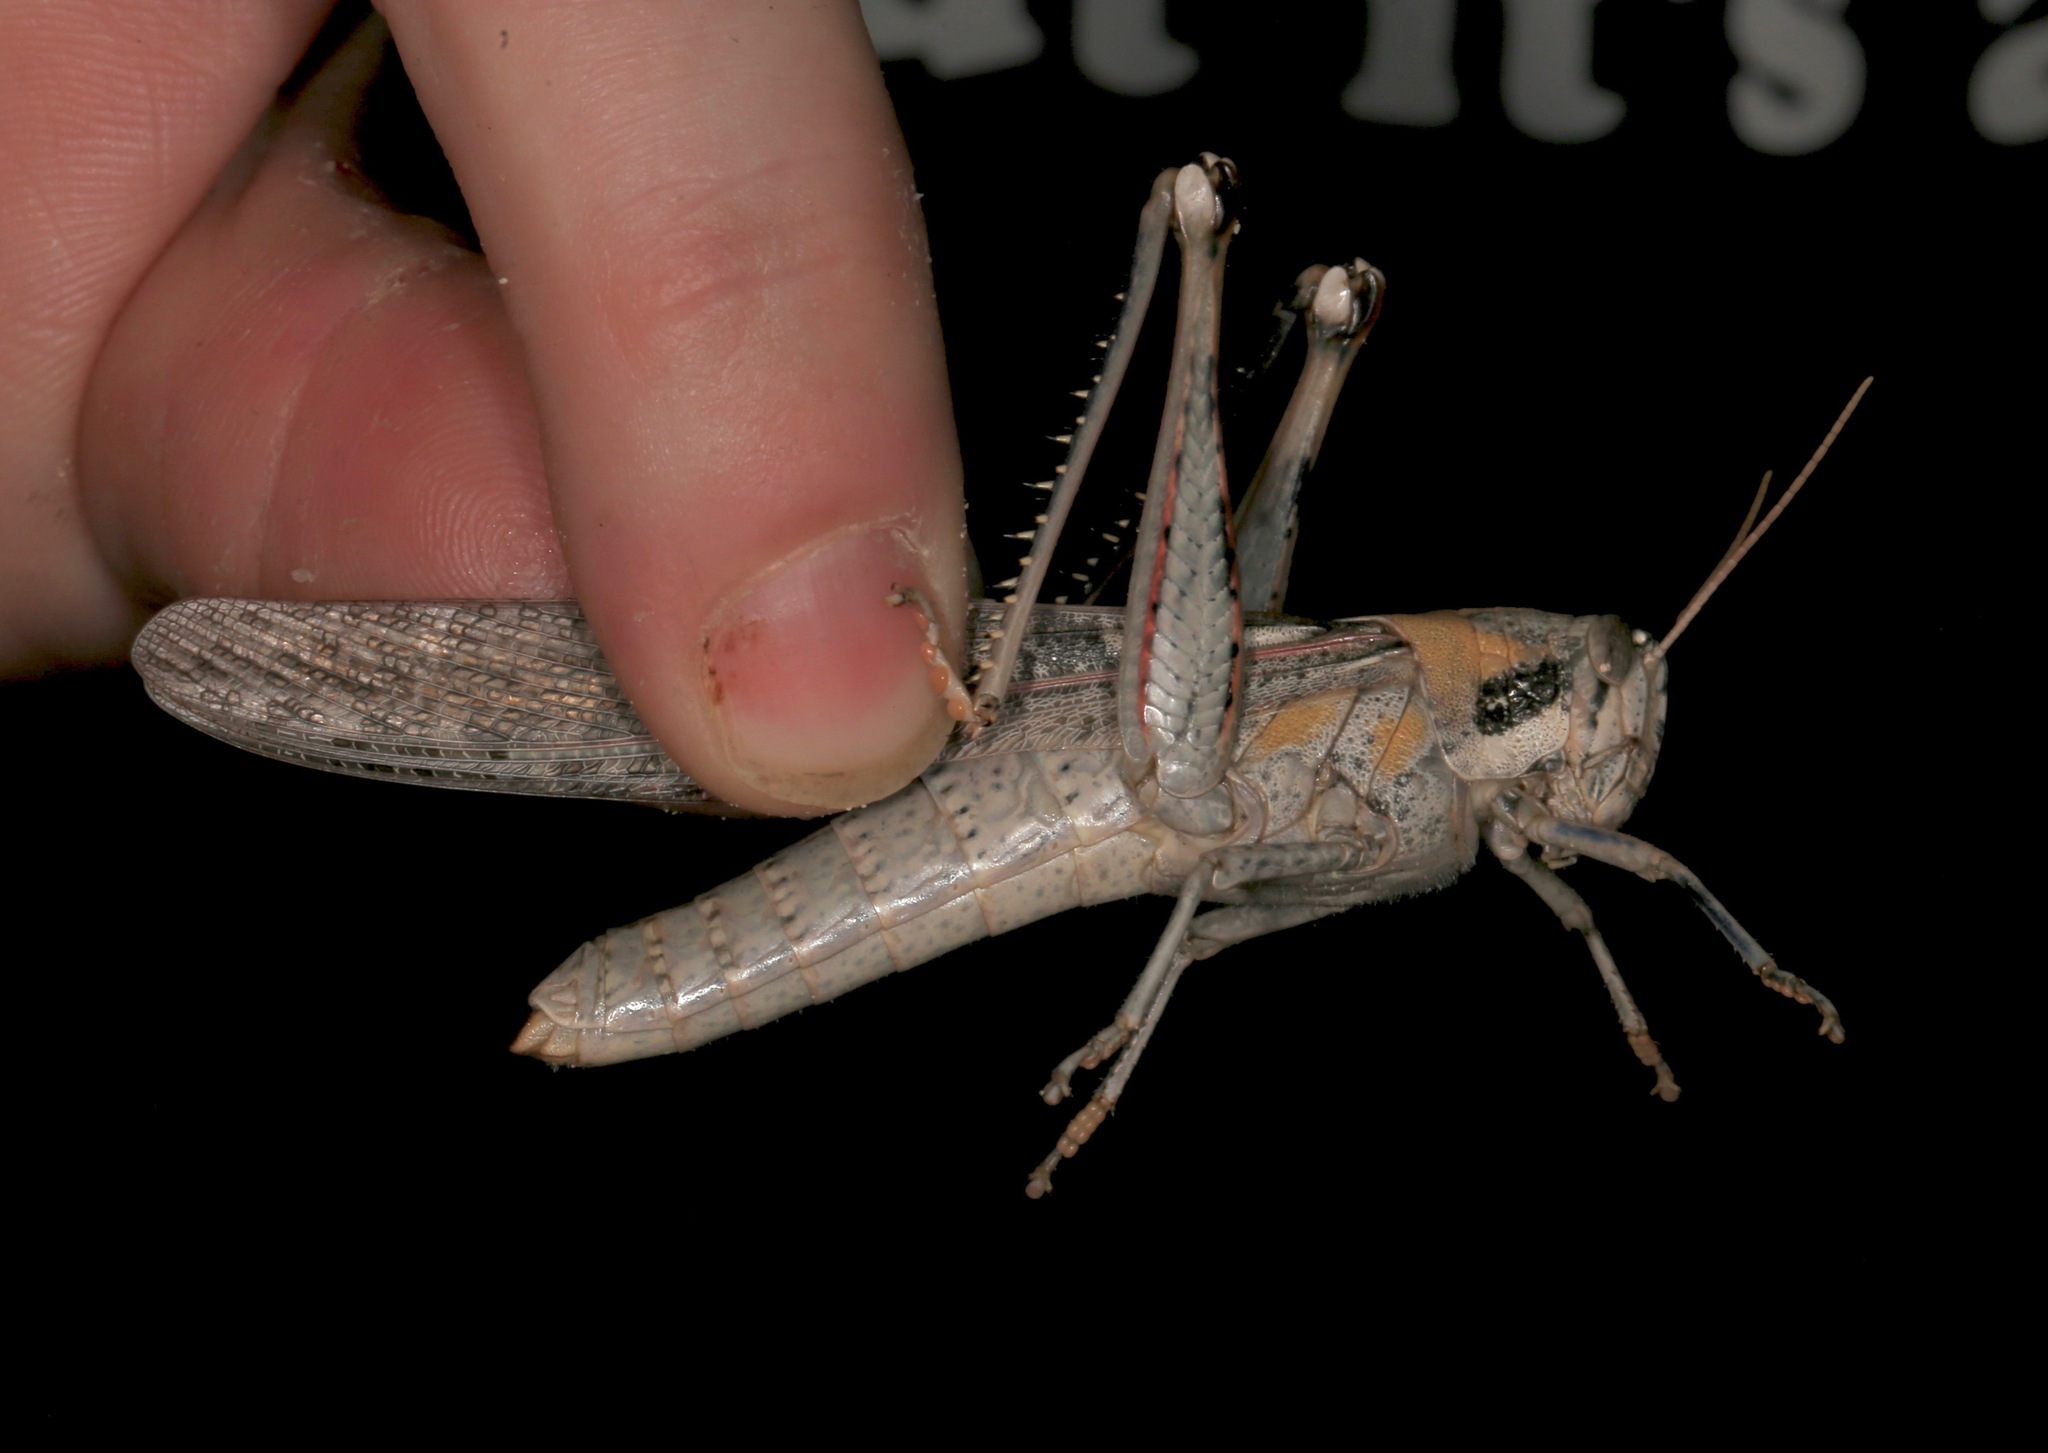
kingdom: Animalia
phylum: Arthropoda
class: Insecta
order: Orthoptera
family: Acrididae
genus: Schistocerca
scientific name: Schistocerca nitens
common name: Vagrant grasshopper
